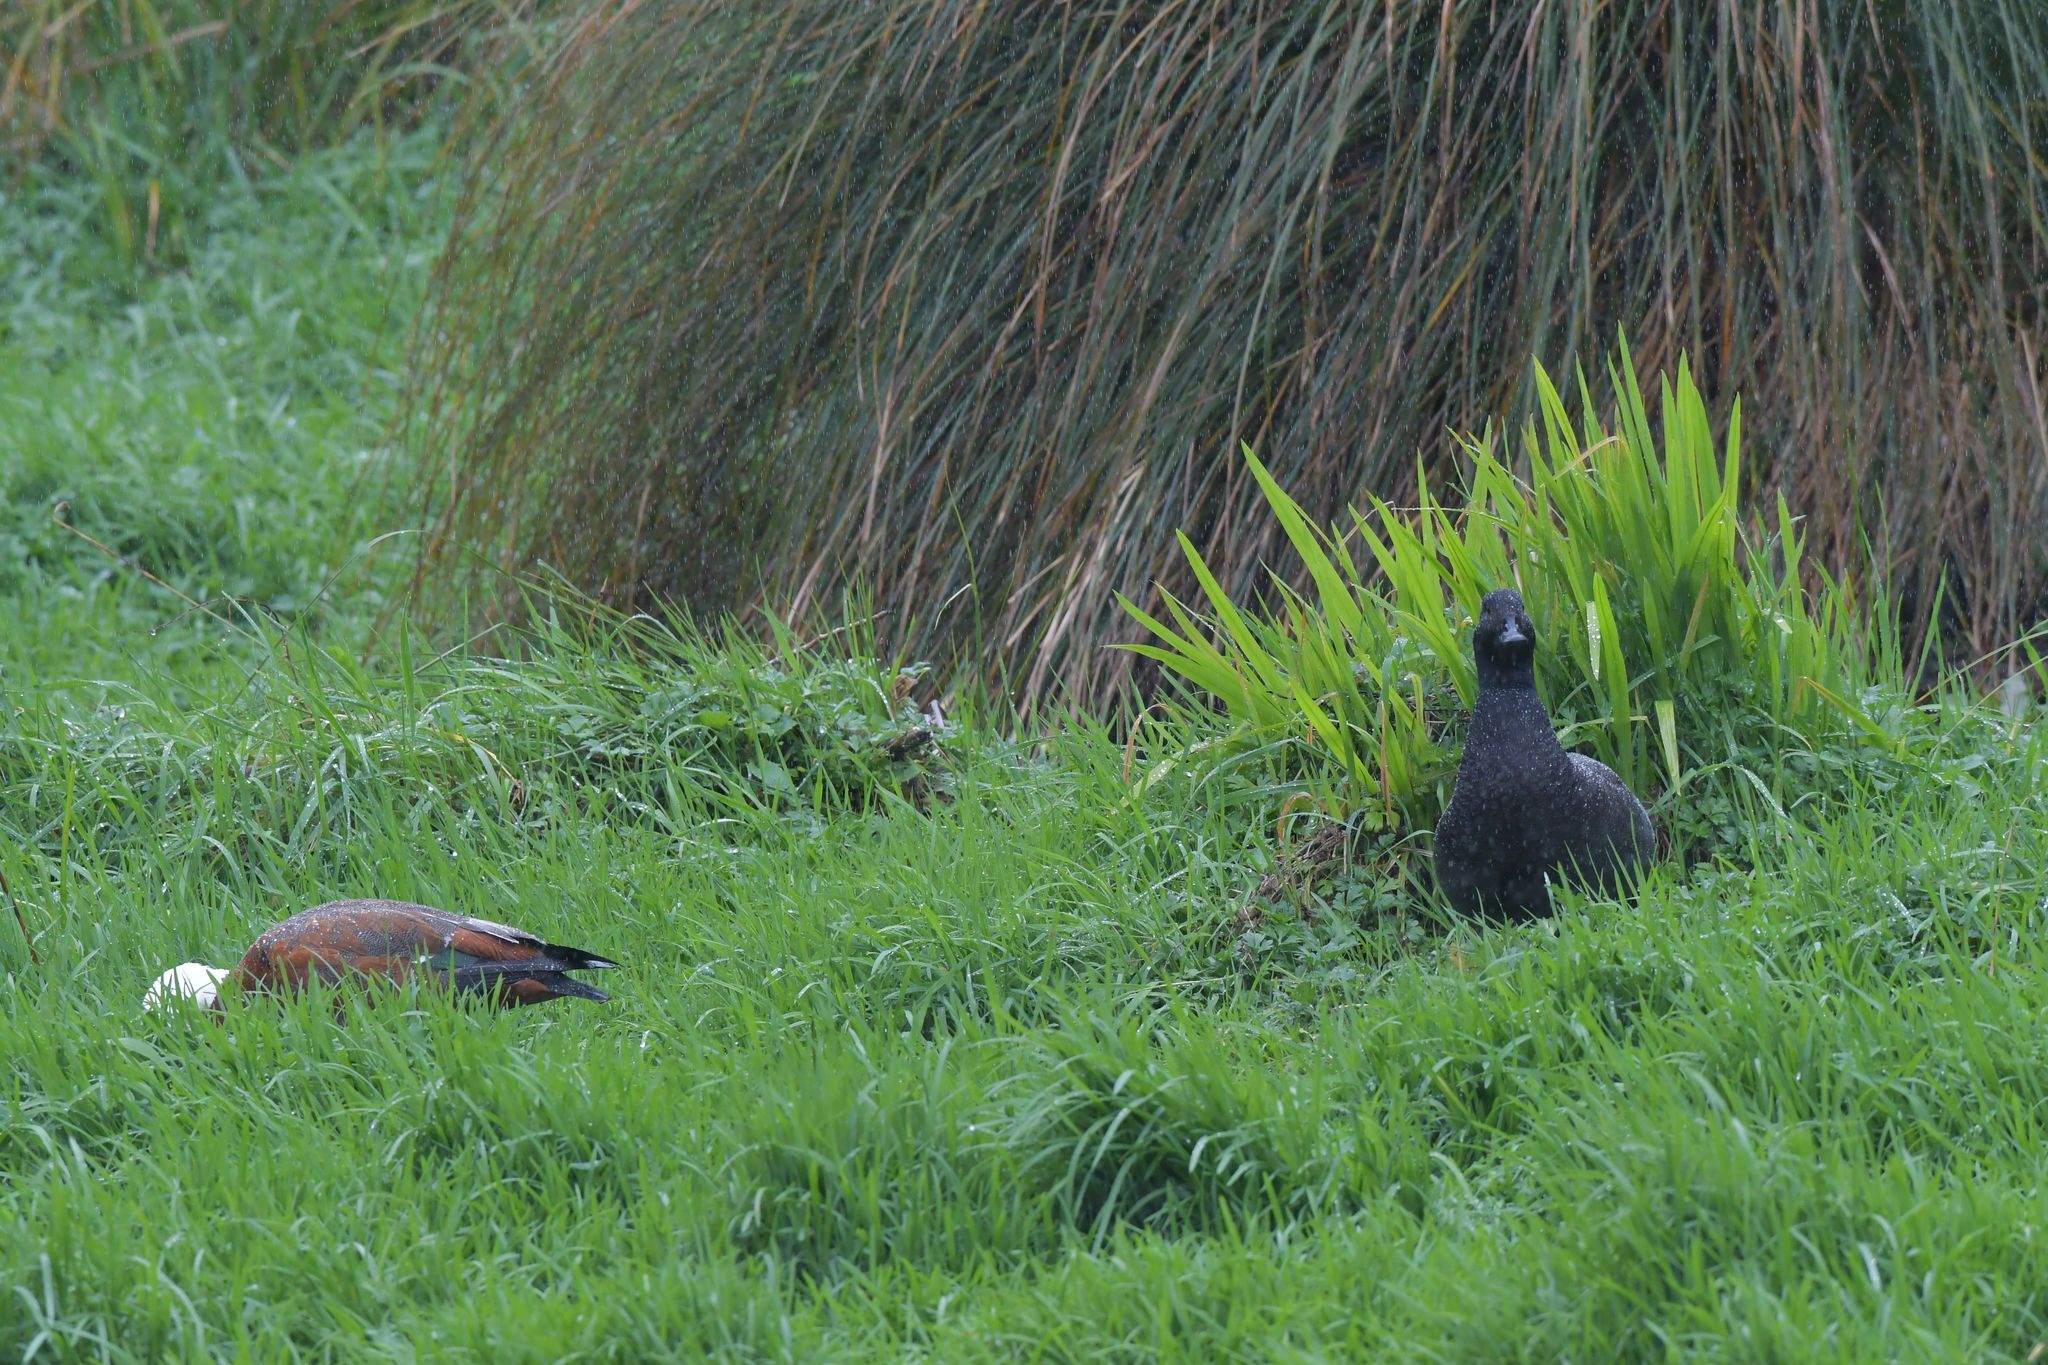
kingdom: Animalia
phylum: Chordata
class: Aves
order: Anseriformes
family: Anatidae
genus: Tadorna
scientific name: Tadorna variegata
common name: Paradise shelduck
